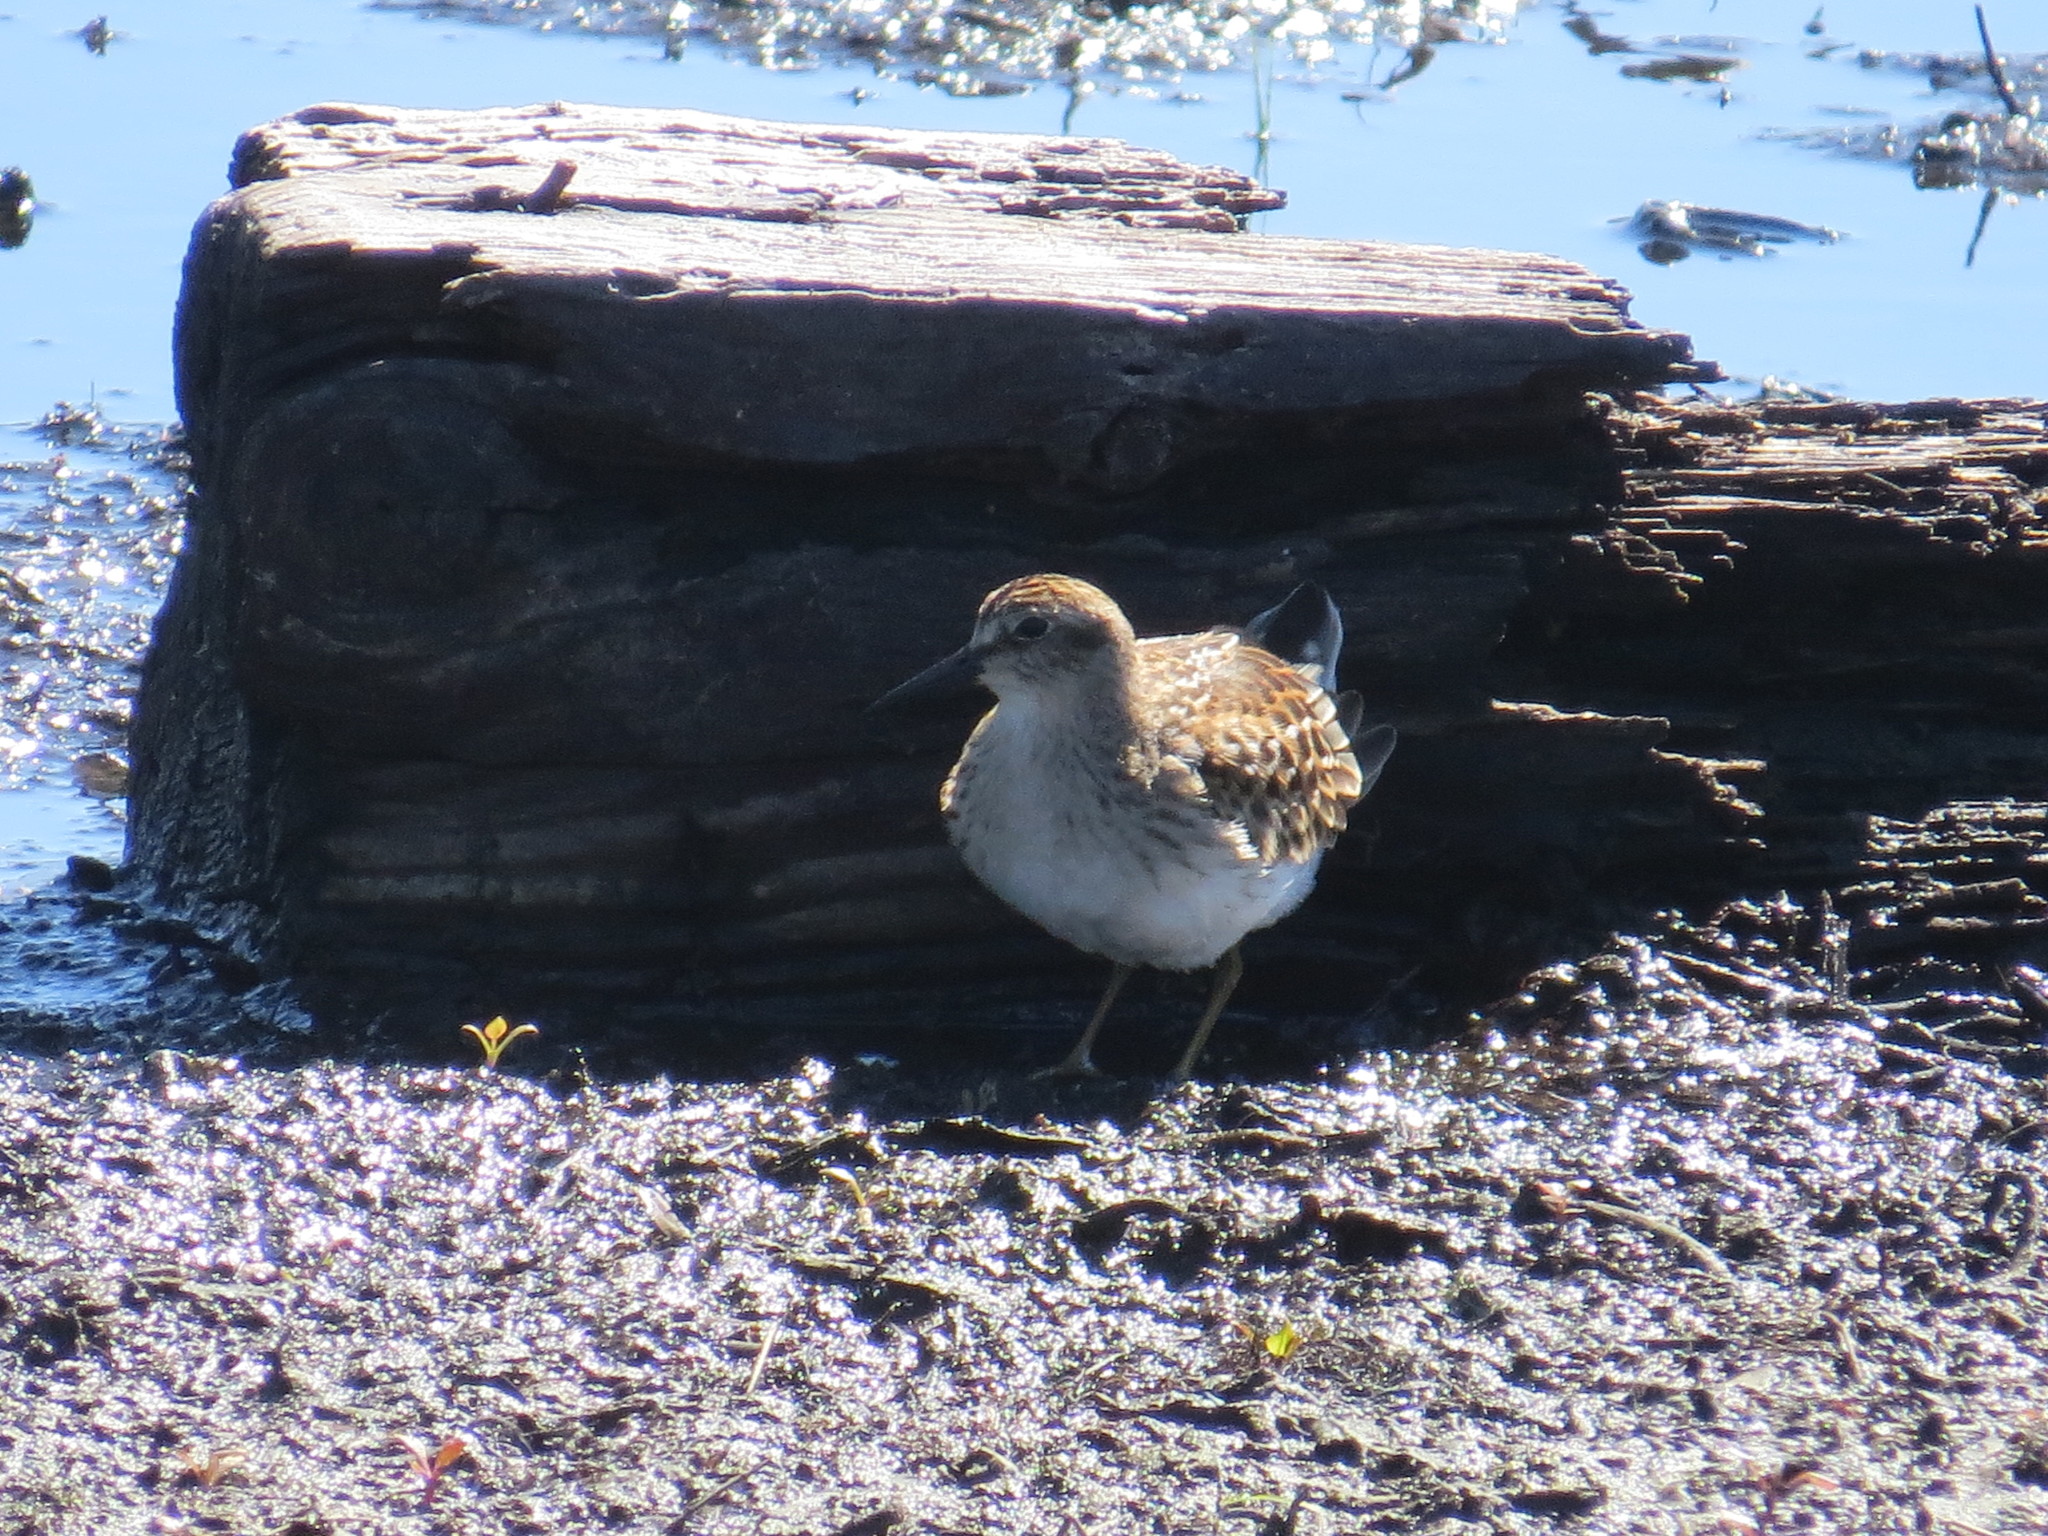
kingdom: Animalia
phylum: Chordata
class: Aves
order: Charadriiformes
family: Scolopacidae
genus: Calidris
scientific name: Calidris minutilla
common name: Least sandpiper
